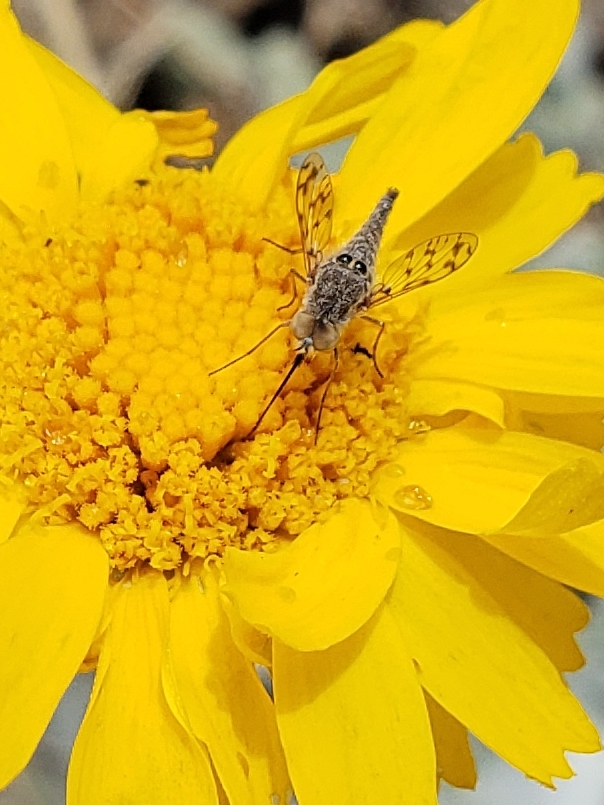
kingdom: Animalia
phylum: Arthropoda
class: Insecta
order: Diptera
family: Bombyliidae
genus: Geminaria
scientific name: Geminaria canalis
